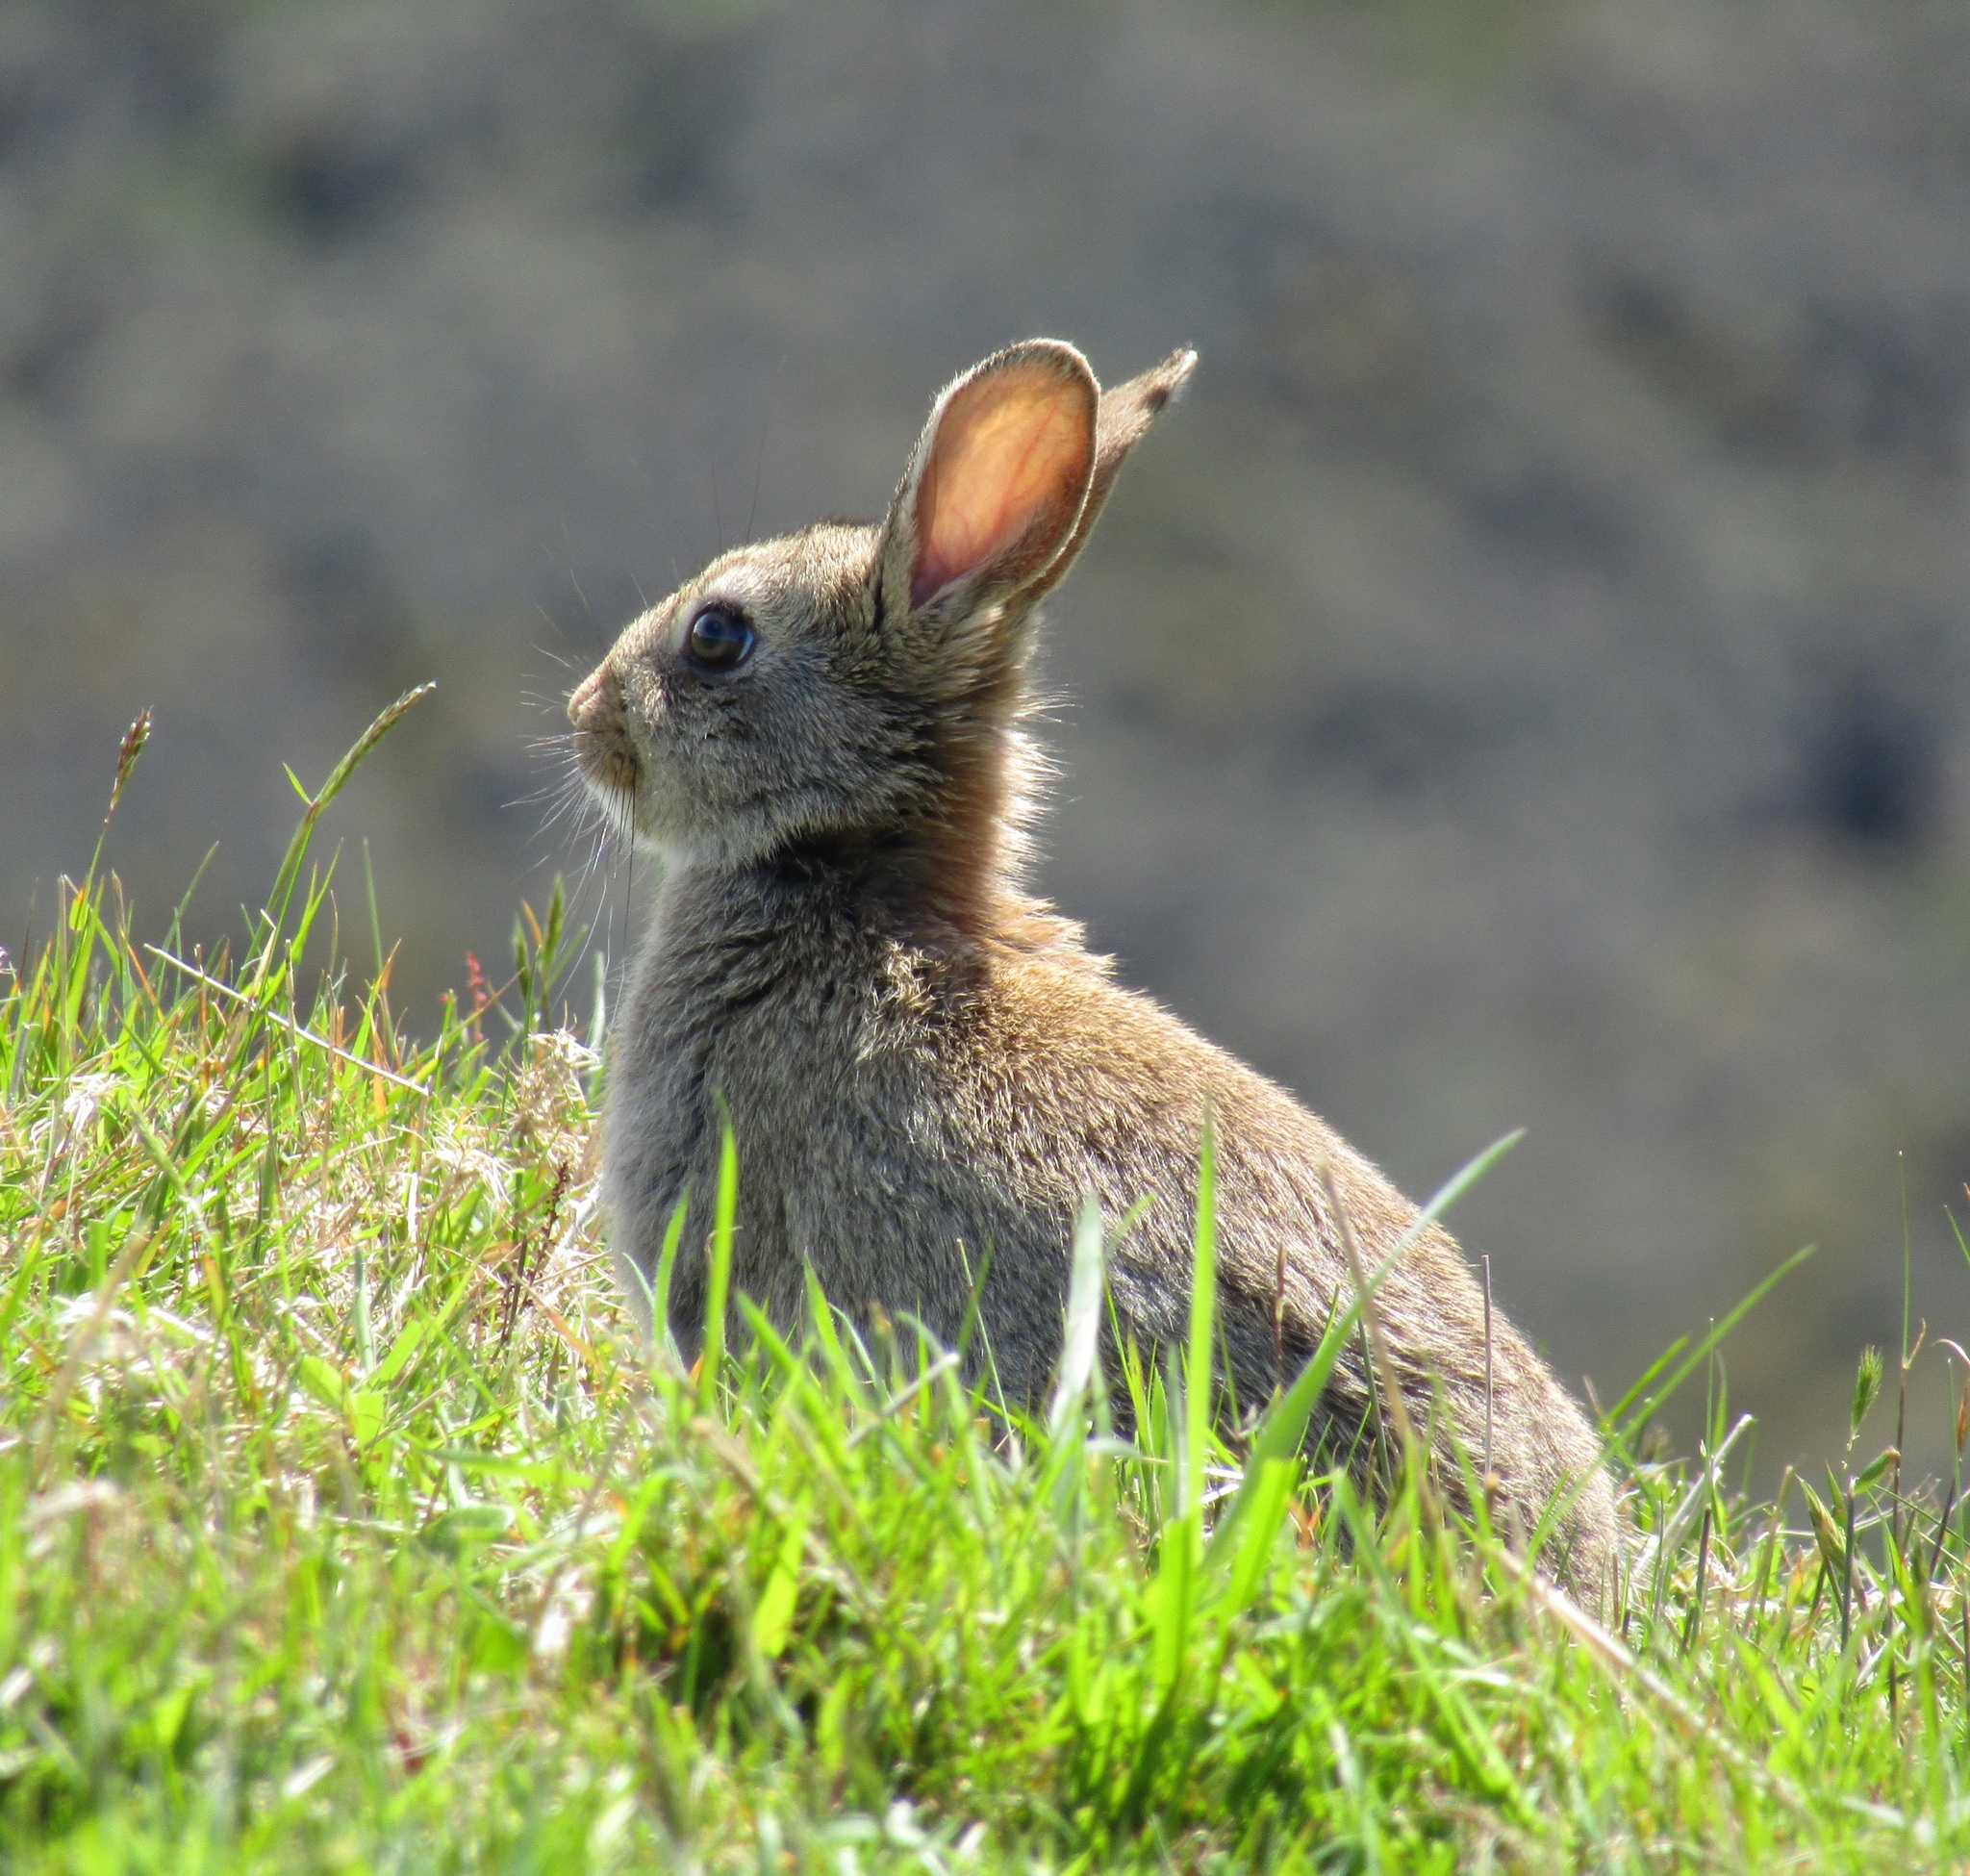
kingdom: Animalia
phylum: Chordata
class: Mammalia
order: Lagomorpha
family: Leporidae
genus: Oryctolagus
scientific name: Oryctolagus cuniculus
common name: European rabbit
